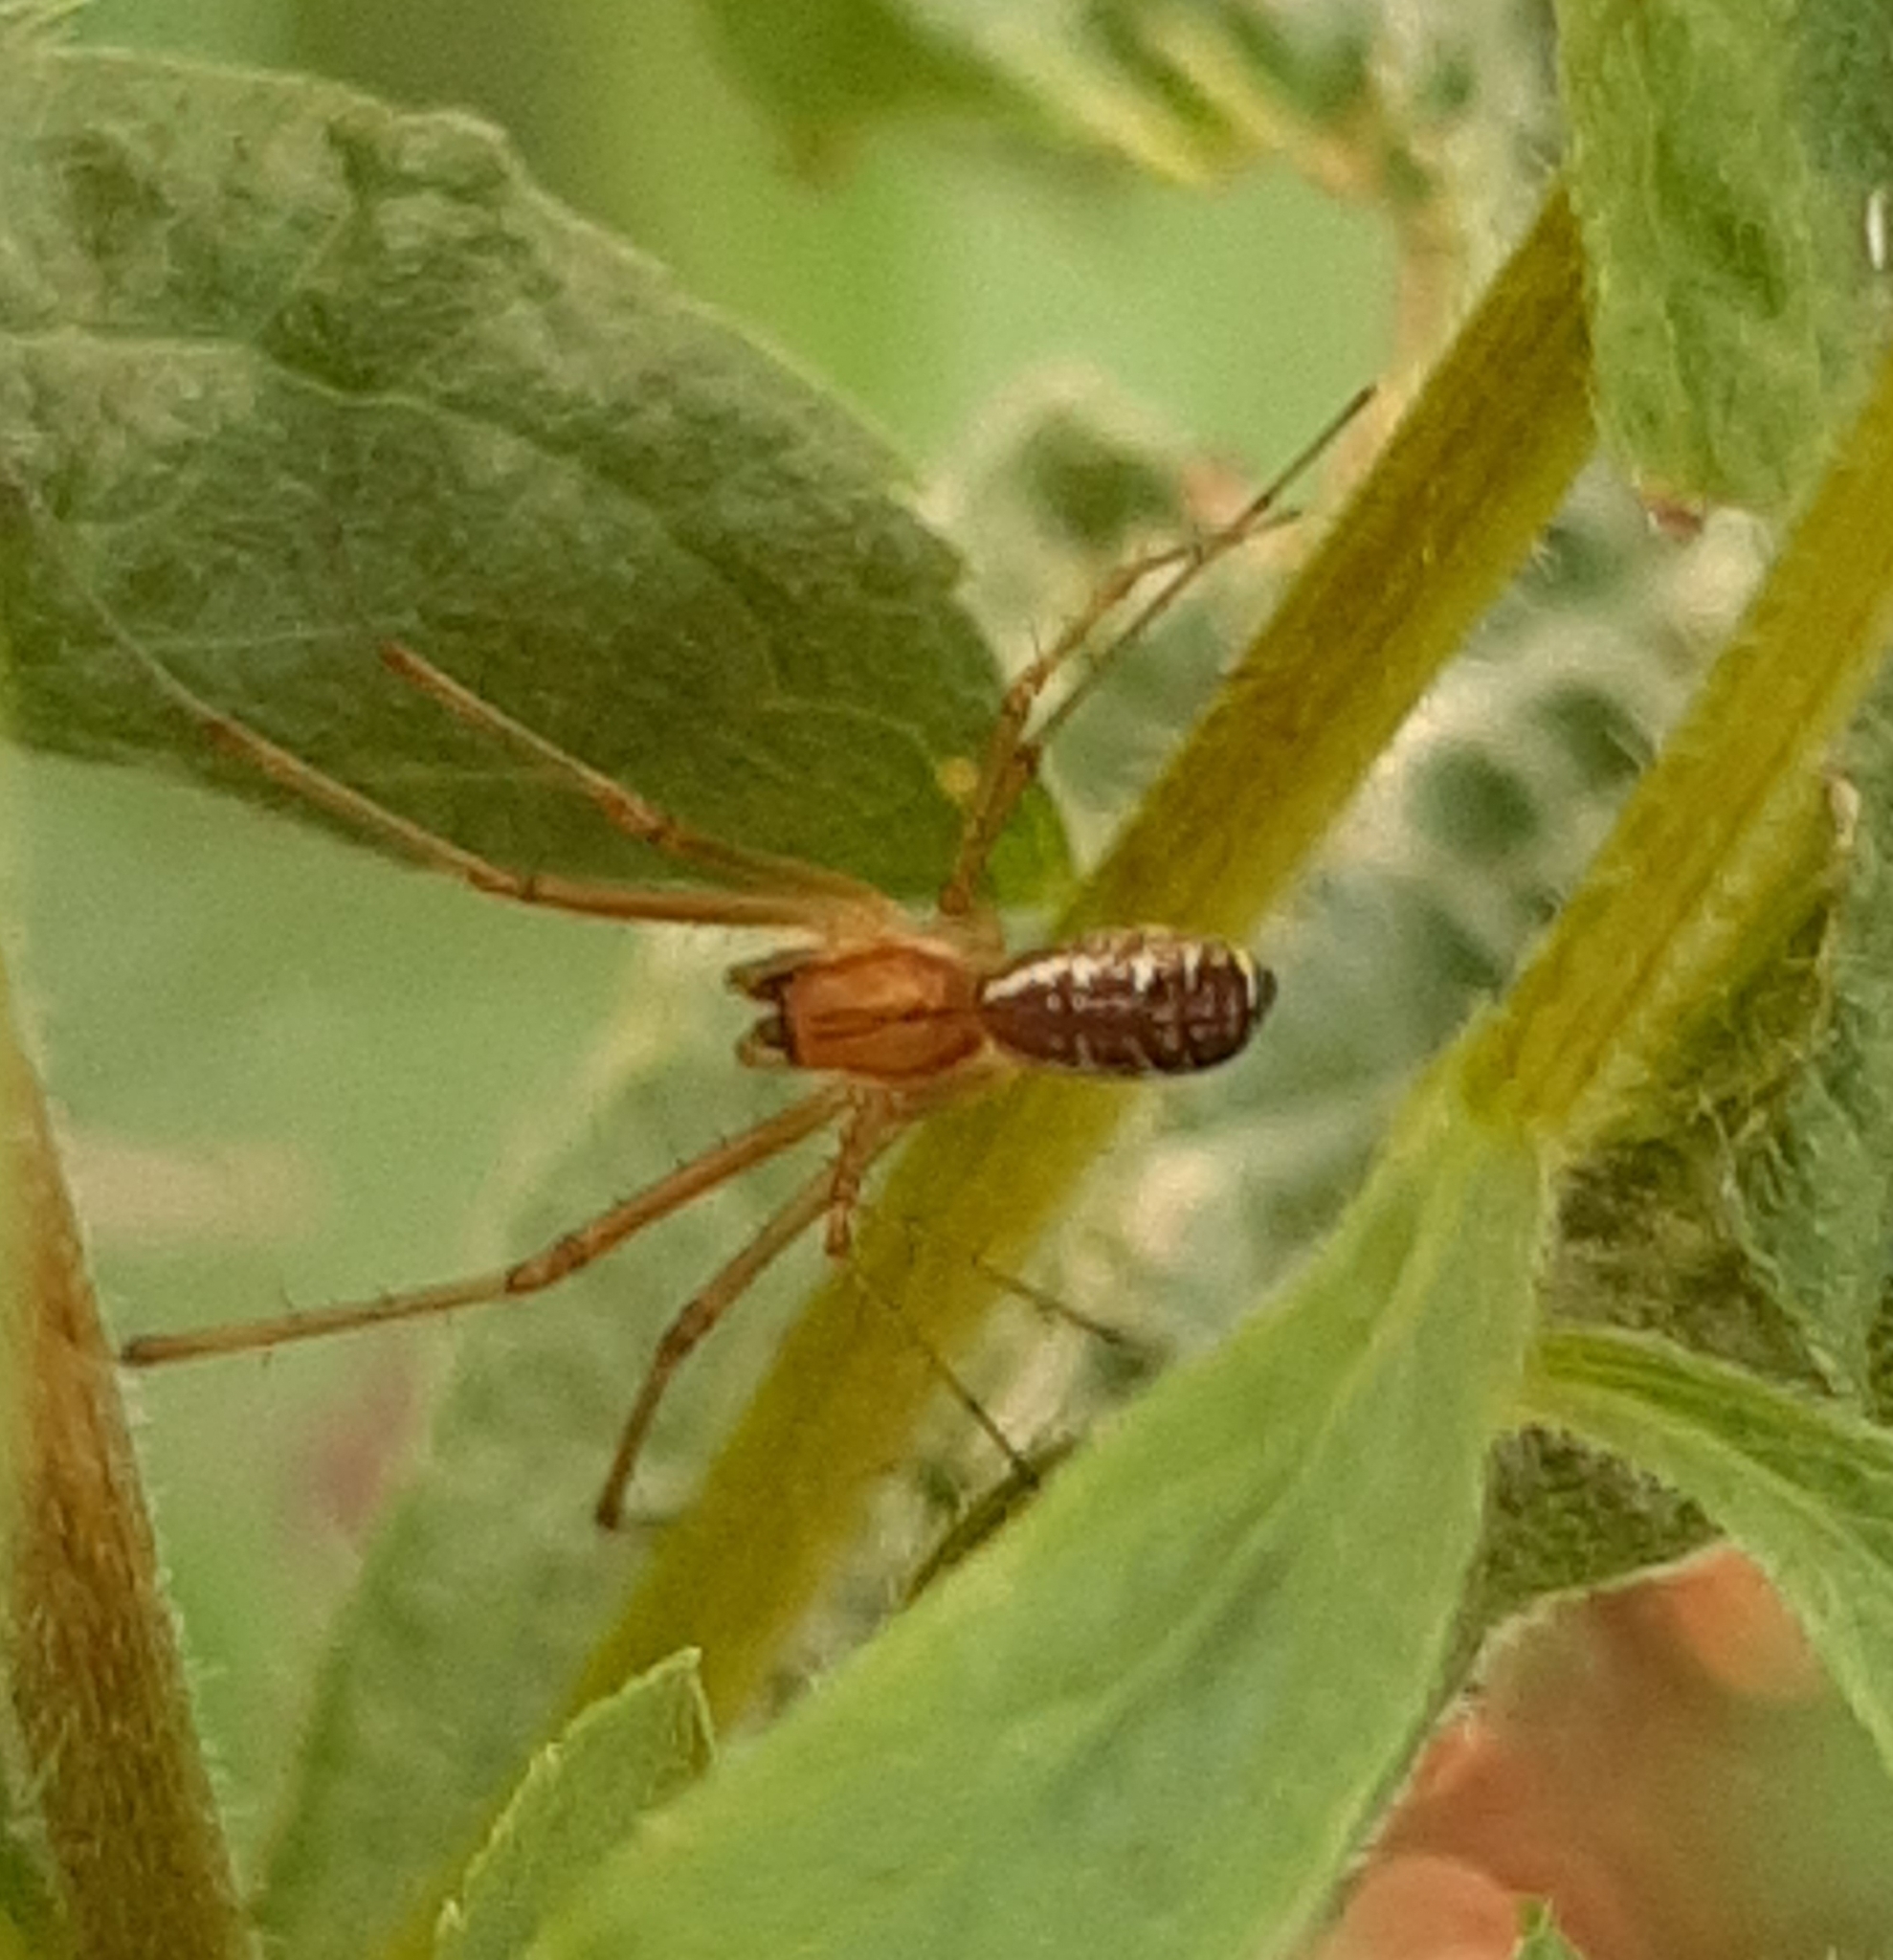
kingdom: Animalia
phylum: Arthropoda
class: Arachnida
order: Araneae
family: Linyphiidae
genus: Linyphia
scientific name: Linyphia triangularis
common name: Money spider
